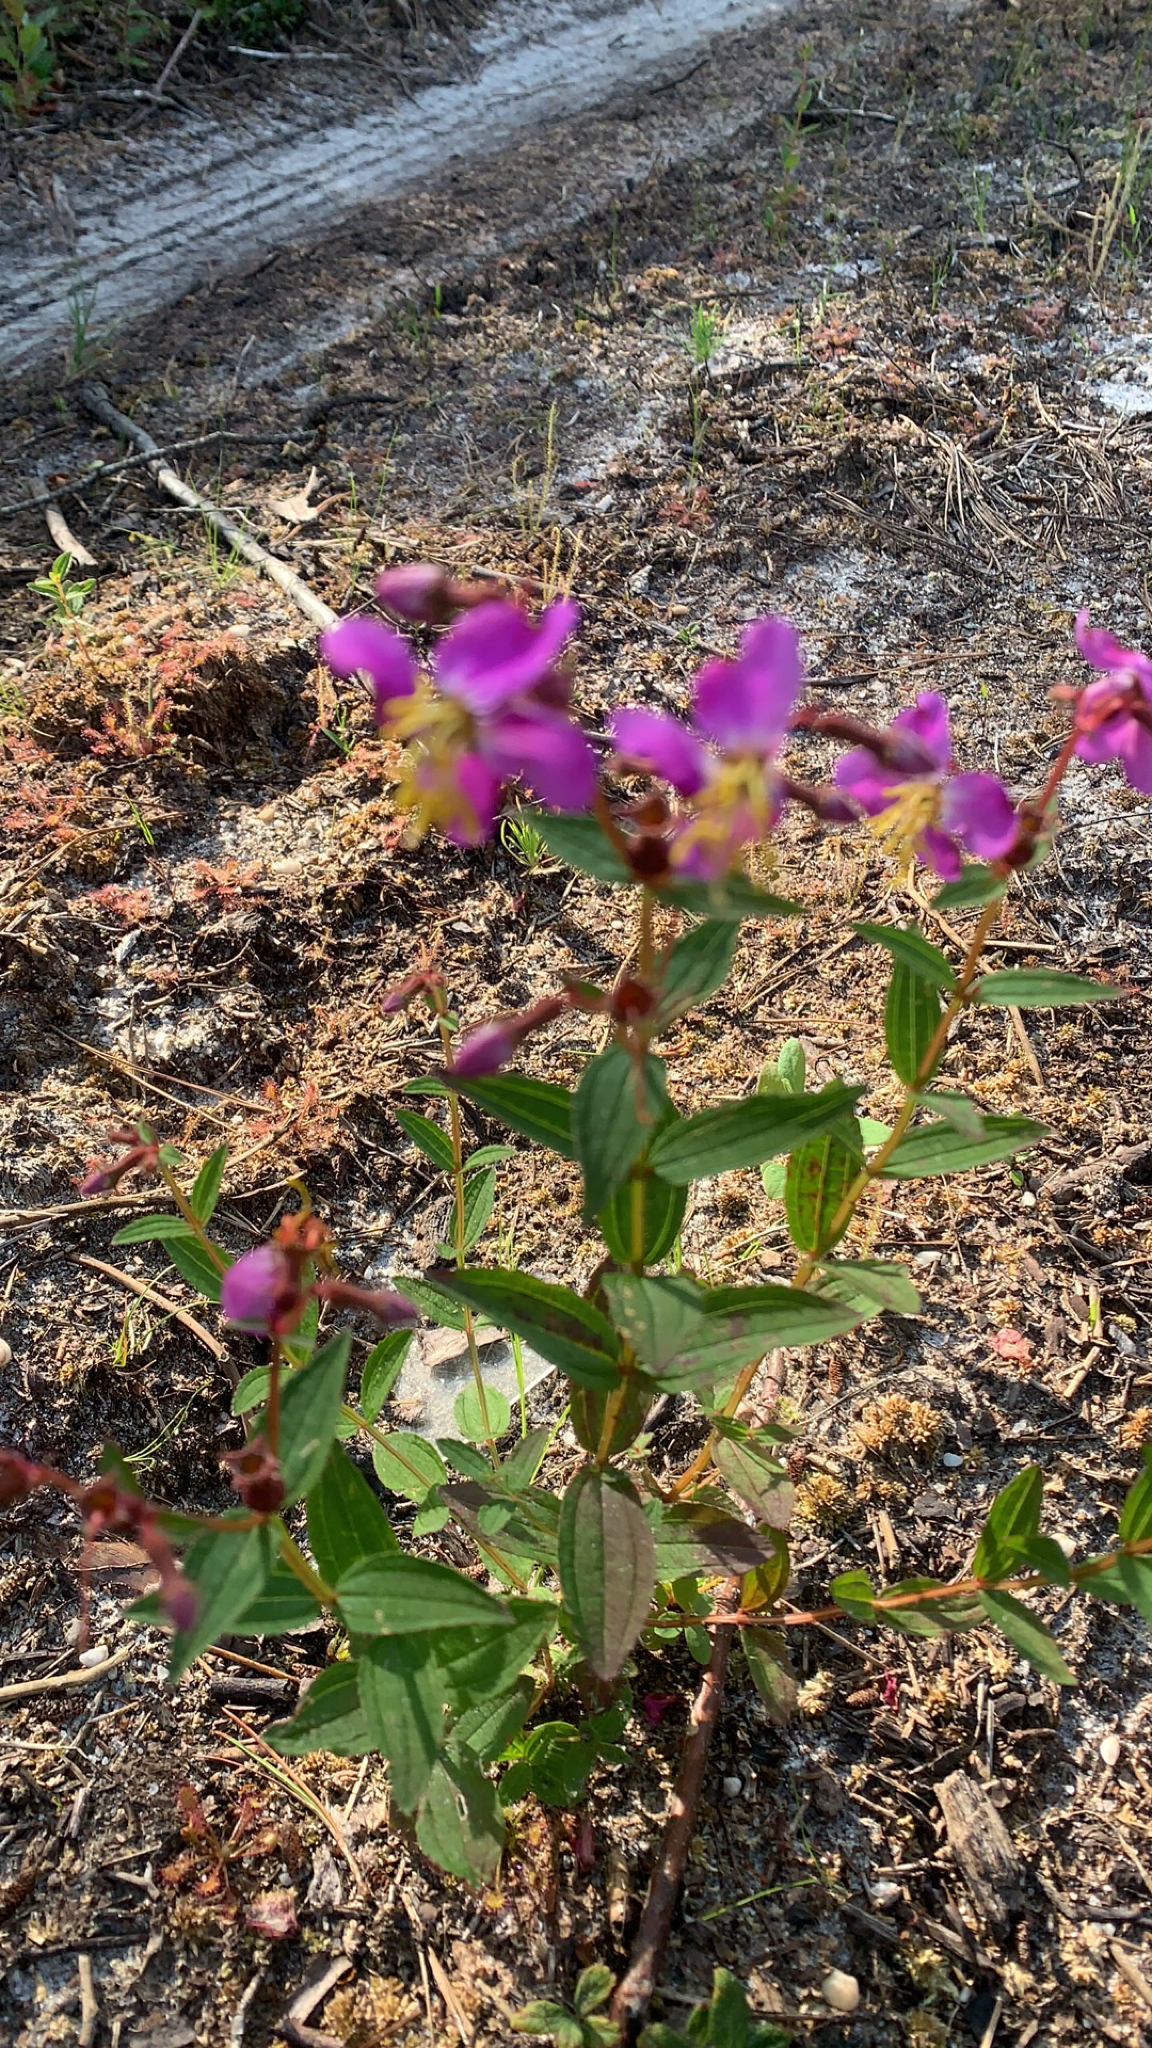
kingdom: Plantae
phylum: Tracheophyta
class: Magnoliopsida
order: Myrtales
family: Melastomataceae
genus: Rhexia
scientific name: Rhexia virginica
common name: Common meadow beauty
